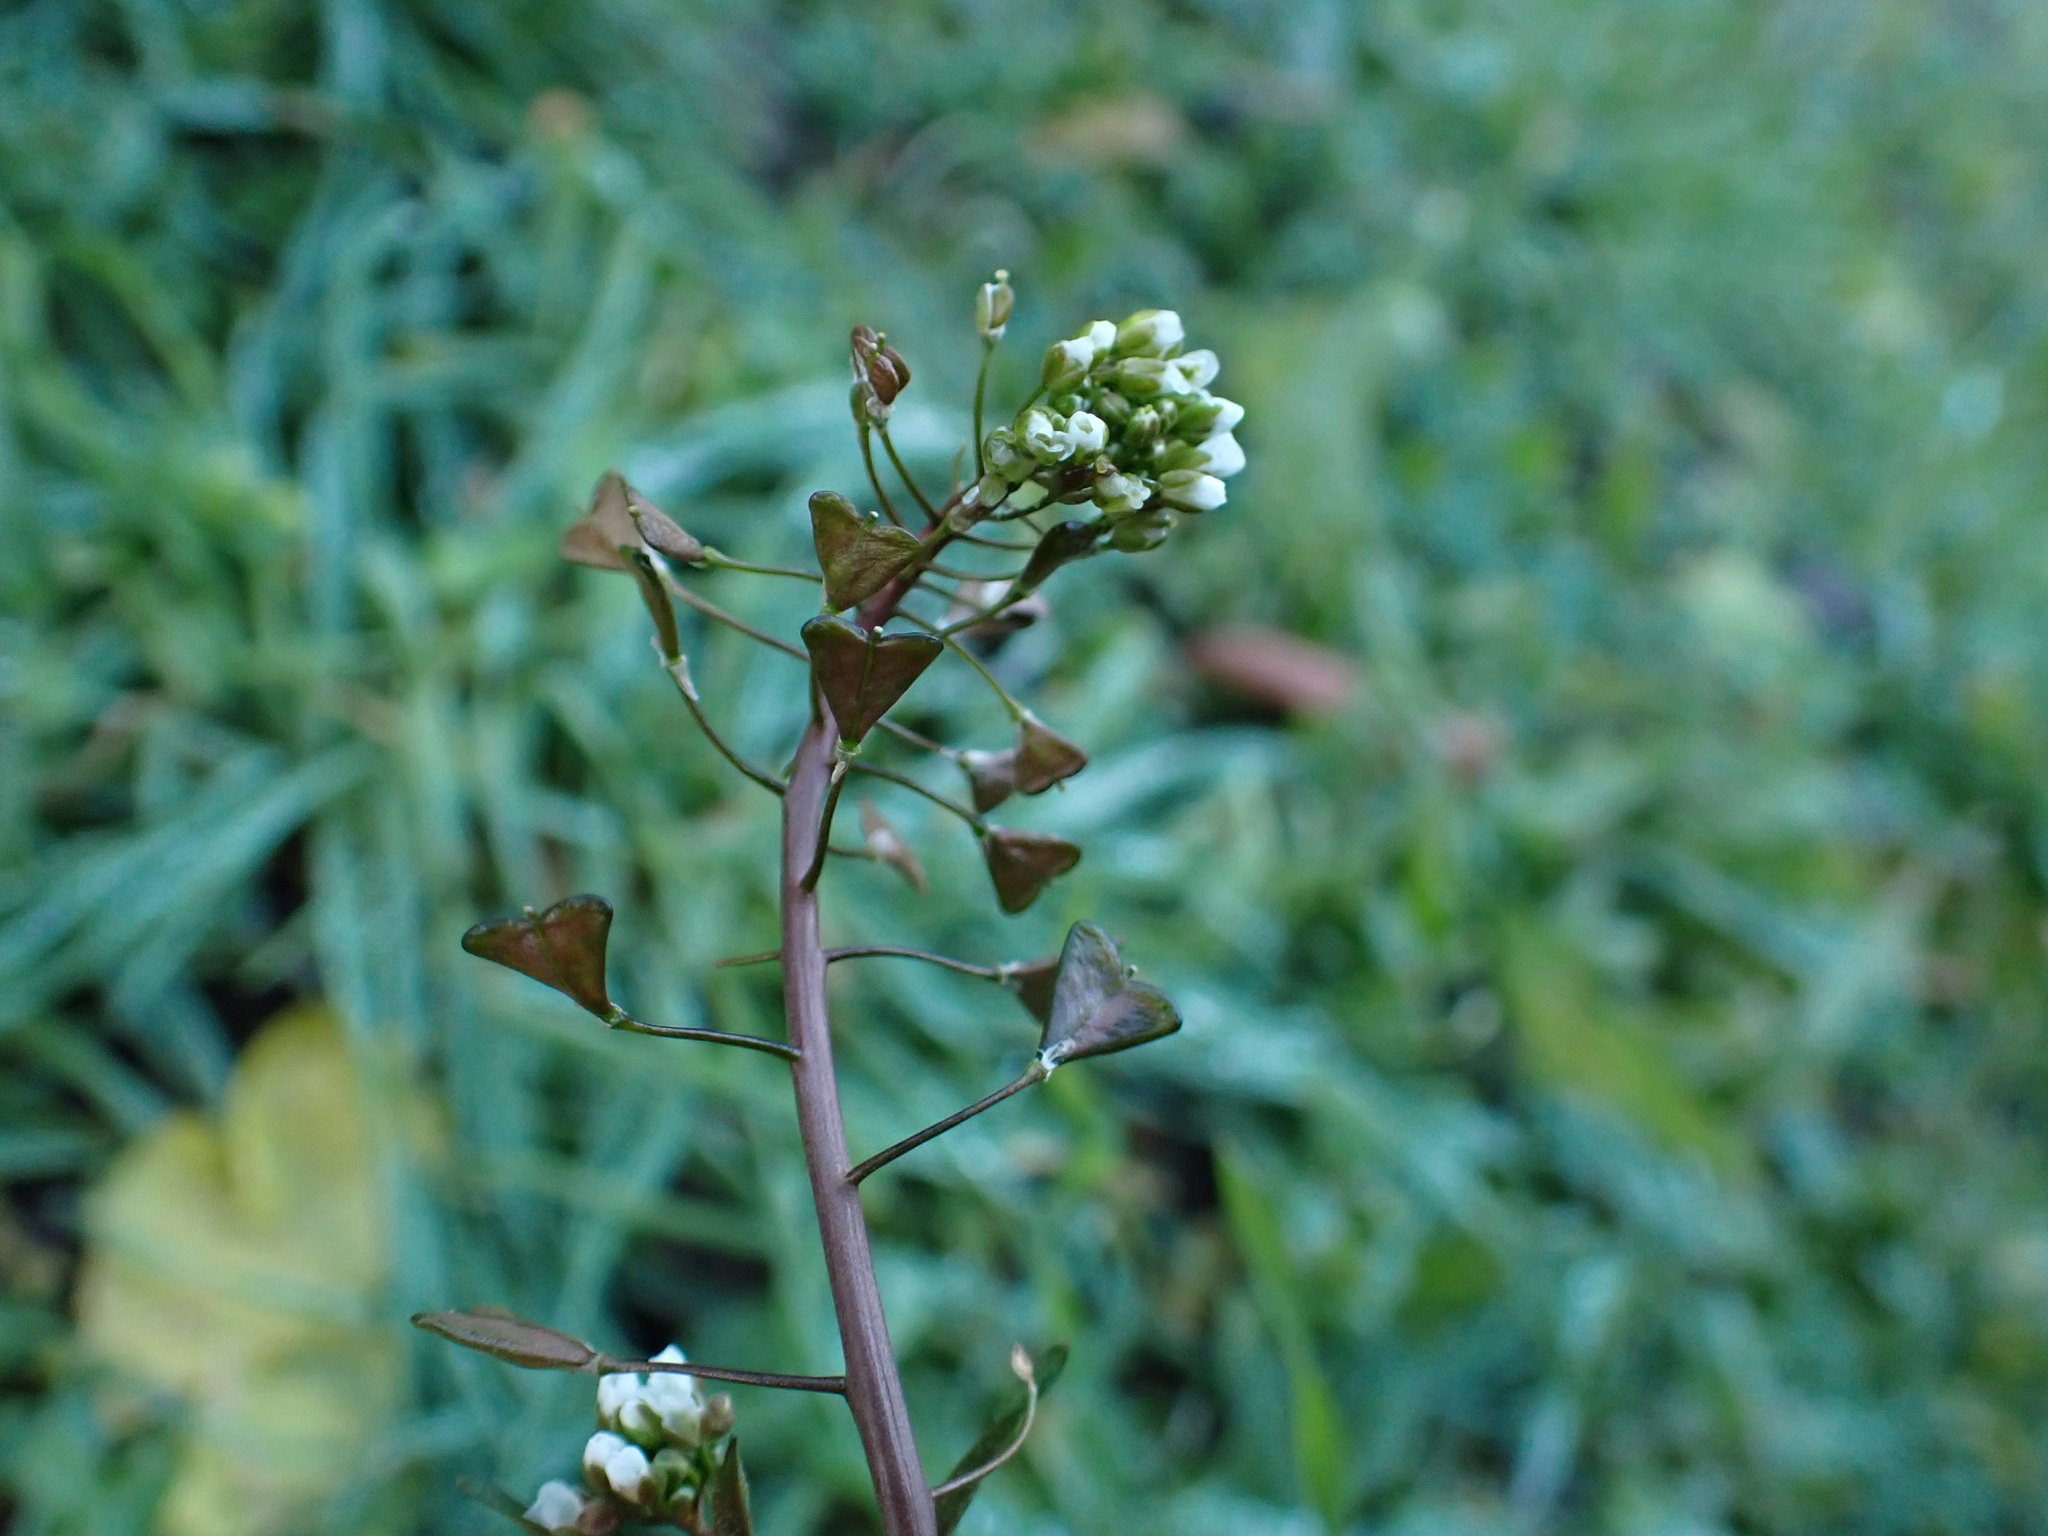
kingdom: Plantae
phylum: Tracheophyta
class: Magnoliopsida
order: Brassicales
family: Brassicaceae
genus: Capsella
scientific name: Capsella bursa-pastoris
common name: Shepherd's purse
